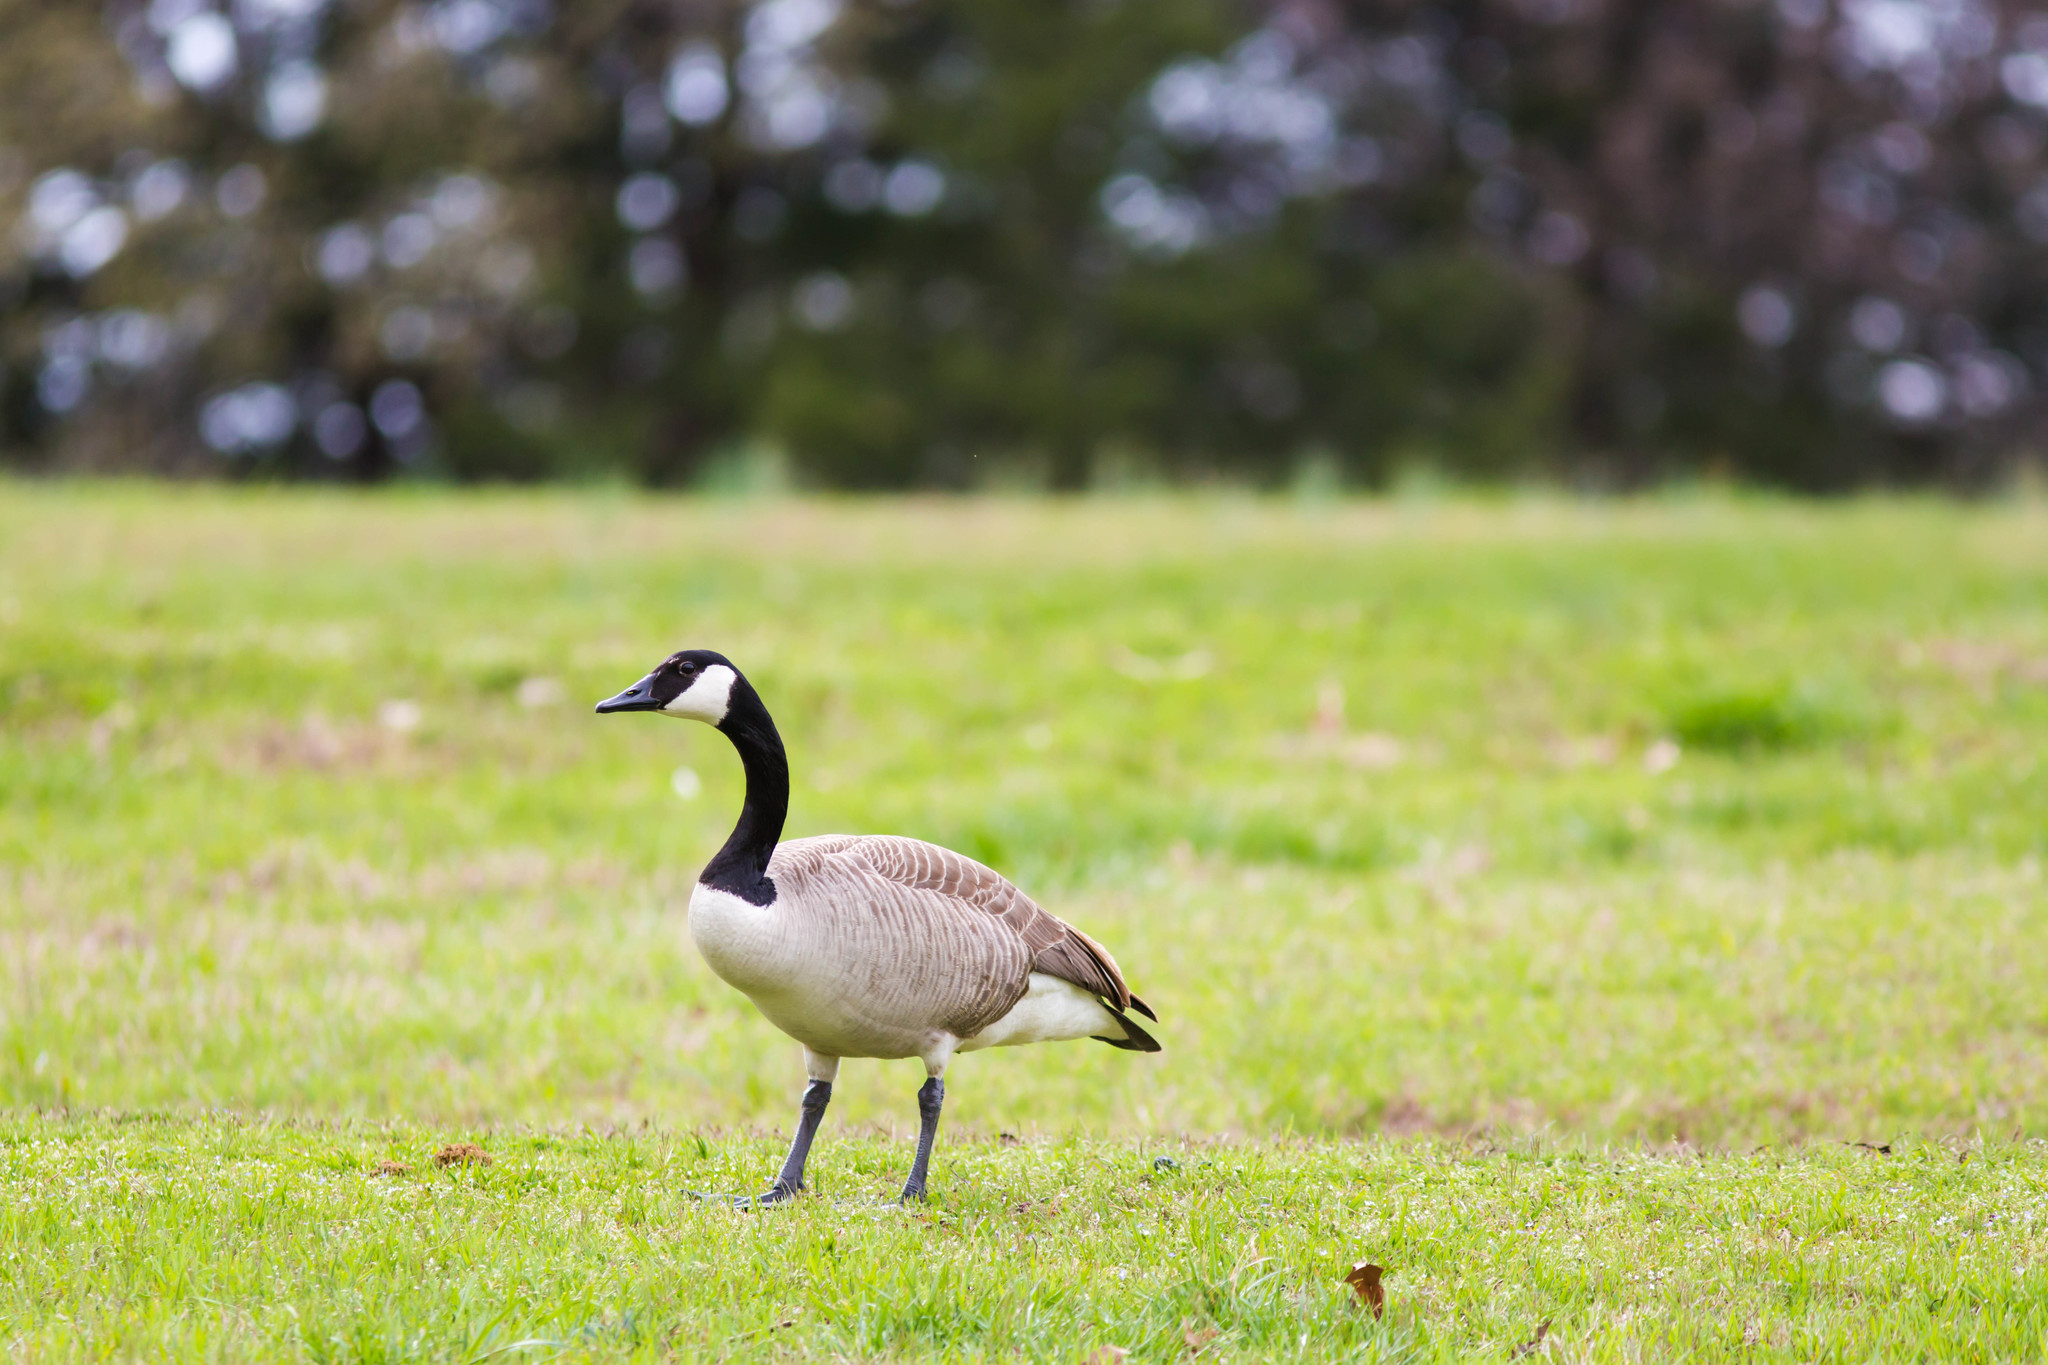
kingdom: Animalia
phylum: Chordata
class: Aves
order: Anseriformes
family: Anatidae
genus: Branta
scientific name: Branta canadensis
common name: Canada goose
